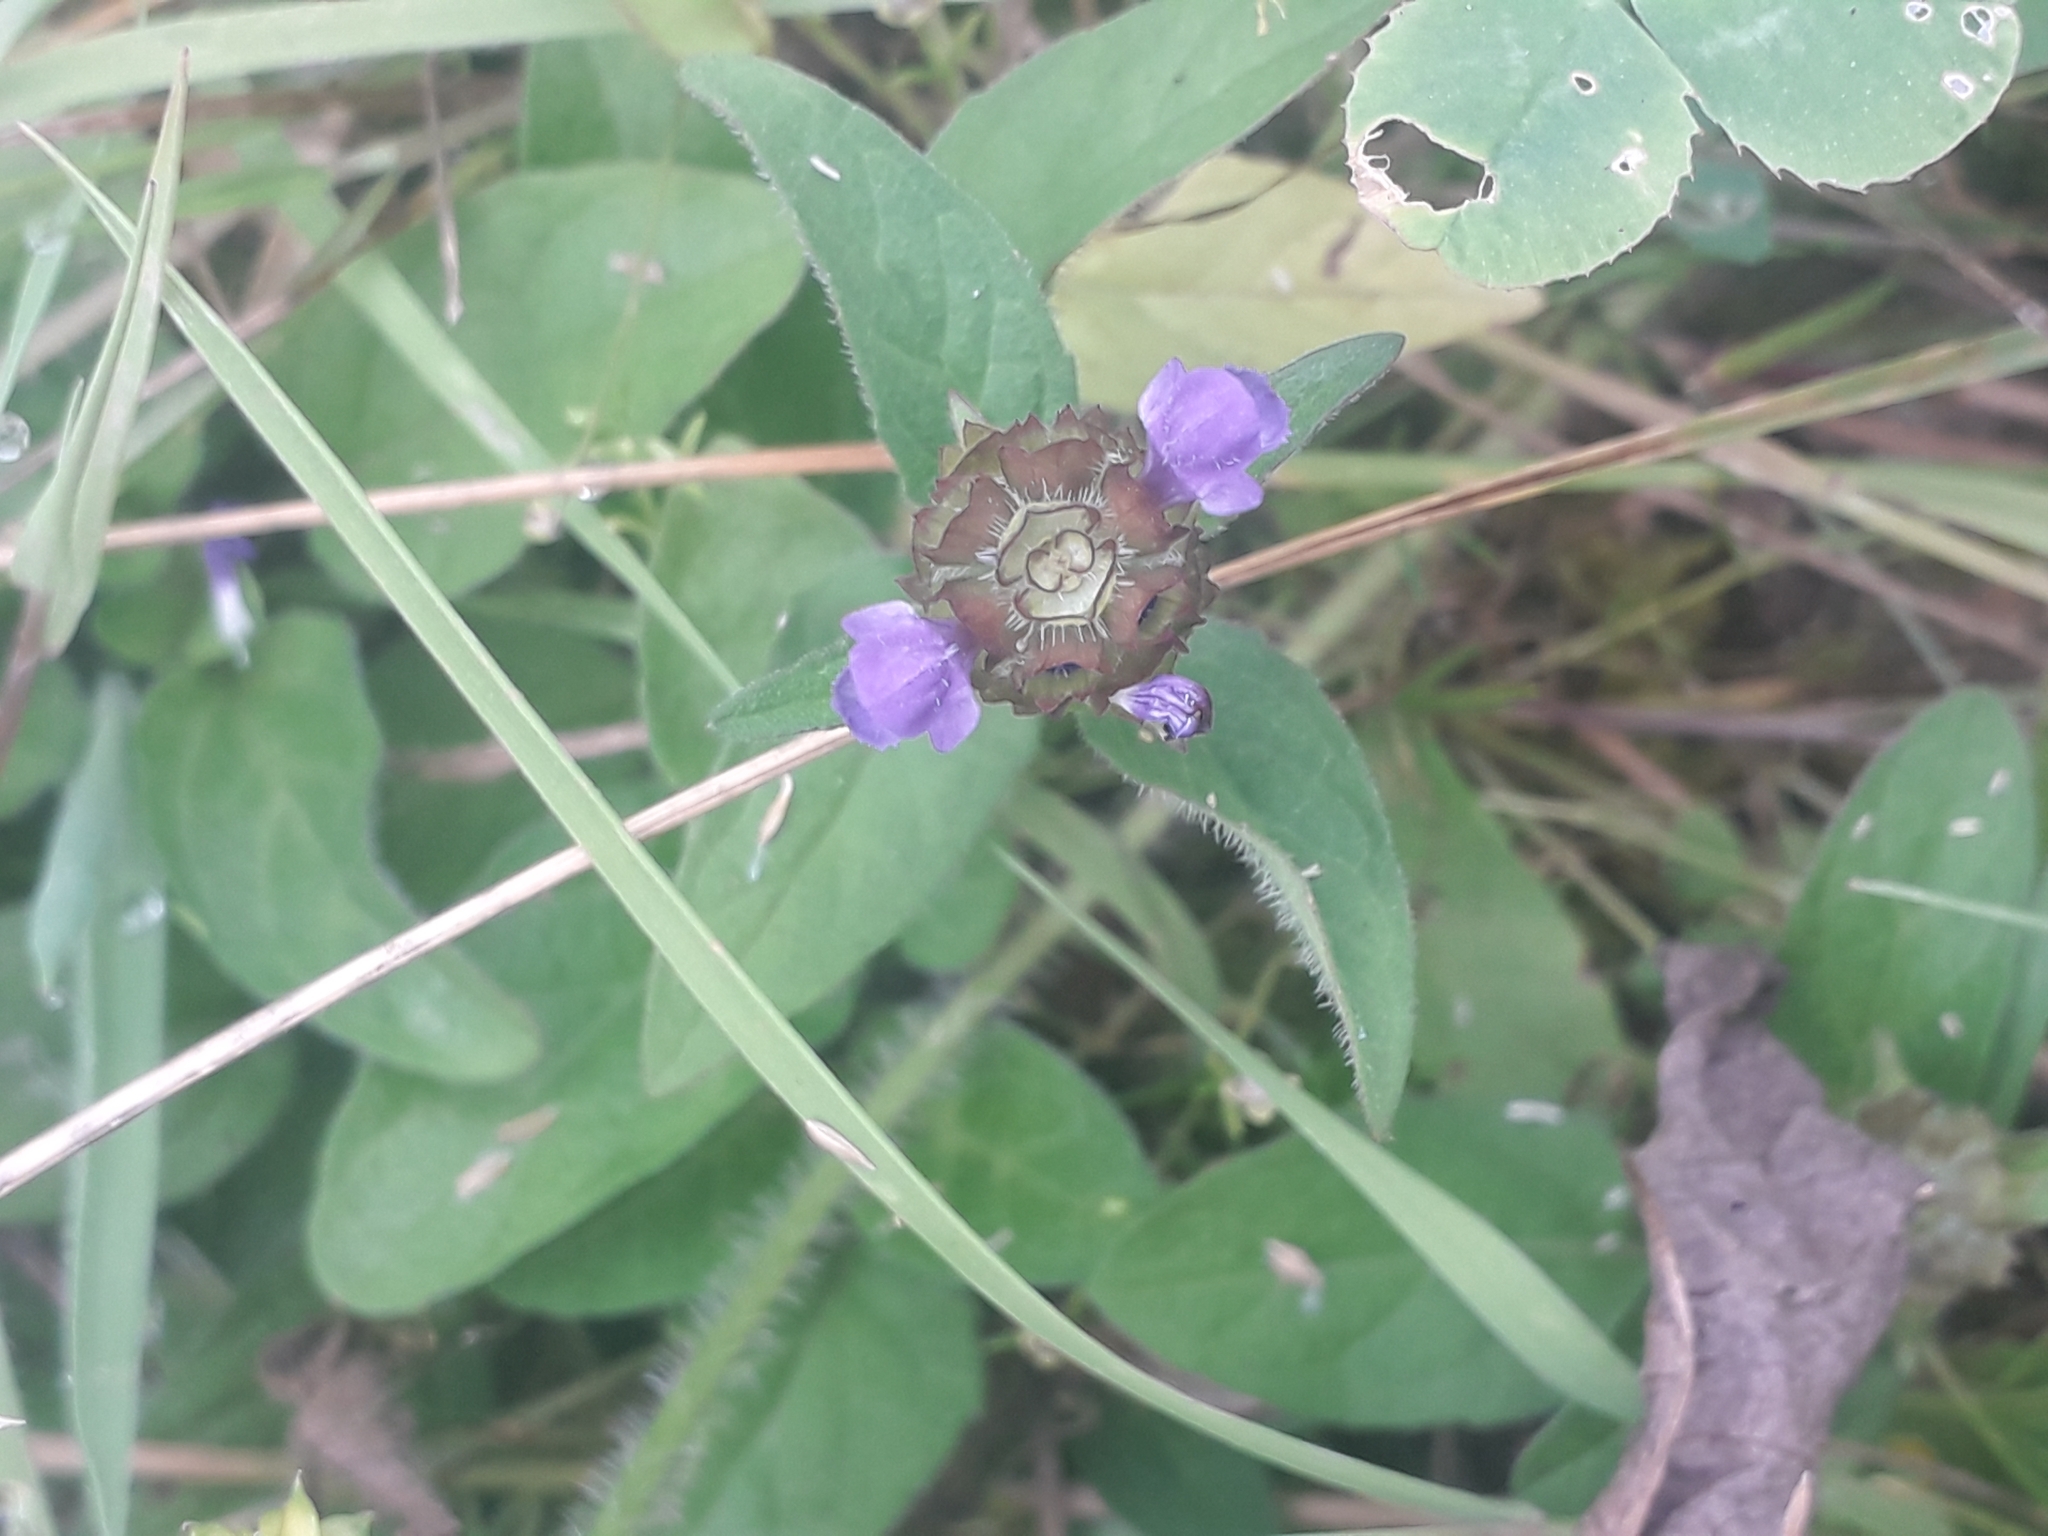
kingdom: Plantae
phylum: Tracheophyta
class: Magnoliopsida
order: Lamiales
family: Lamiaceae
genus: Prunella
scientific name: Prunella vulgaris
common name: Heal-all
